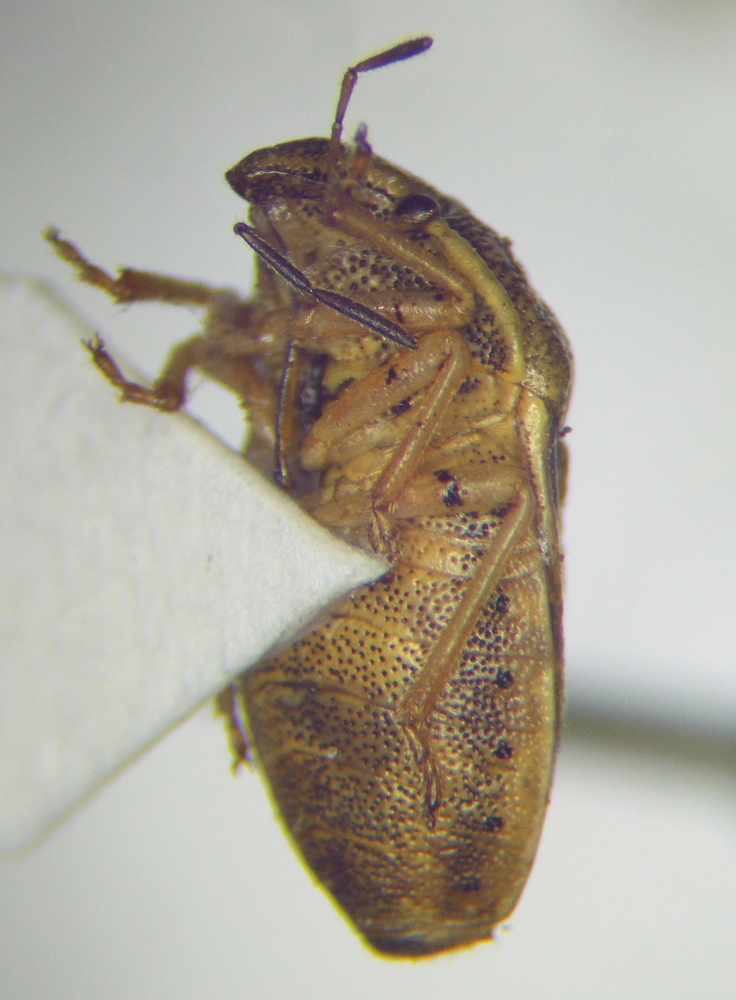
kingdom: Animalia
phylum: Arthropoda
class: Insecta
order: Hemiptera
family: Pentatomidae
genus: Neottiglossa
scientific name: Neottiglossa leporina
